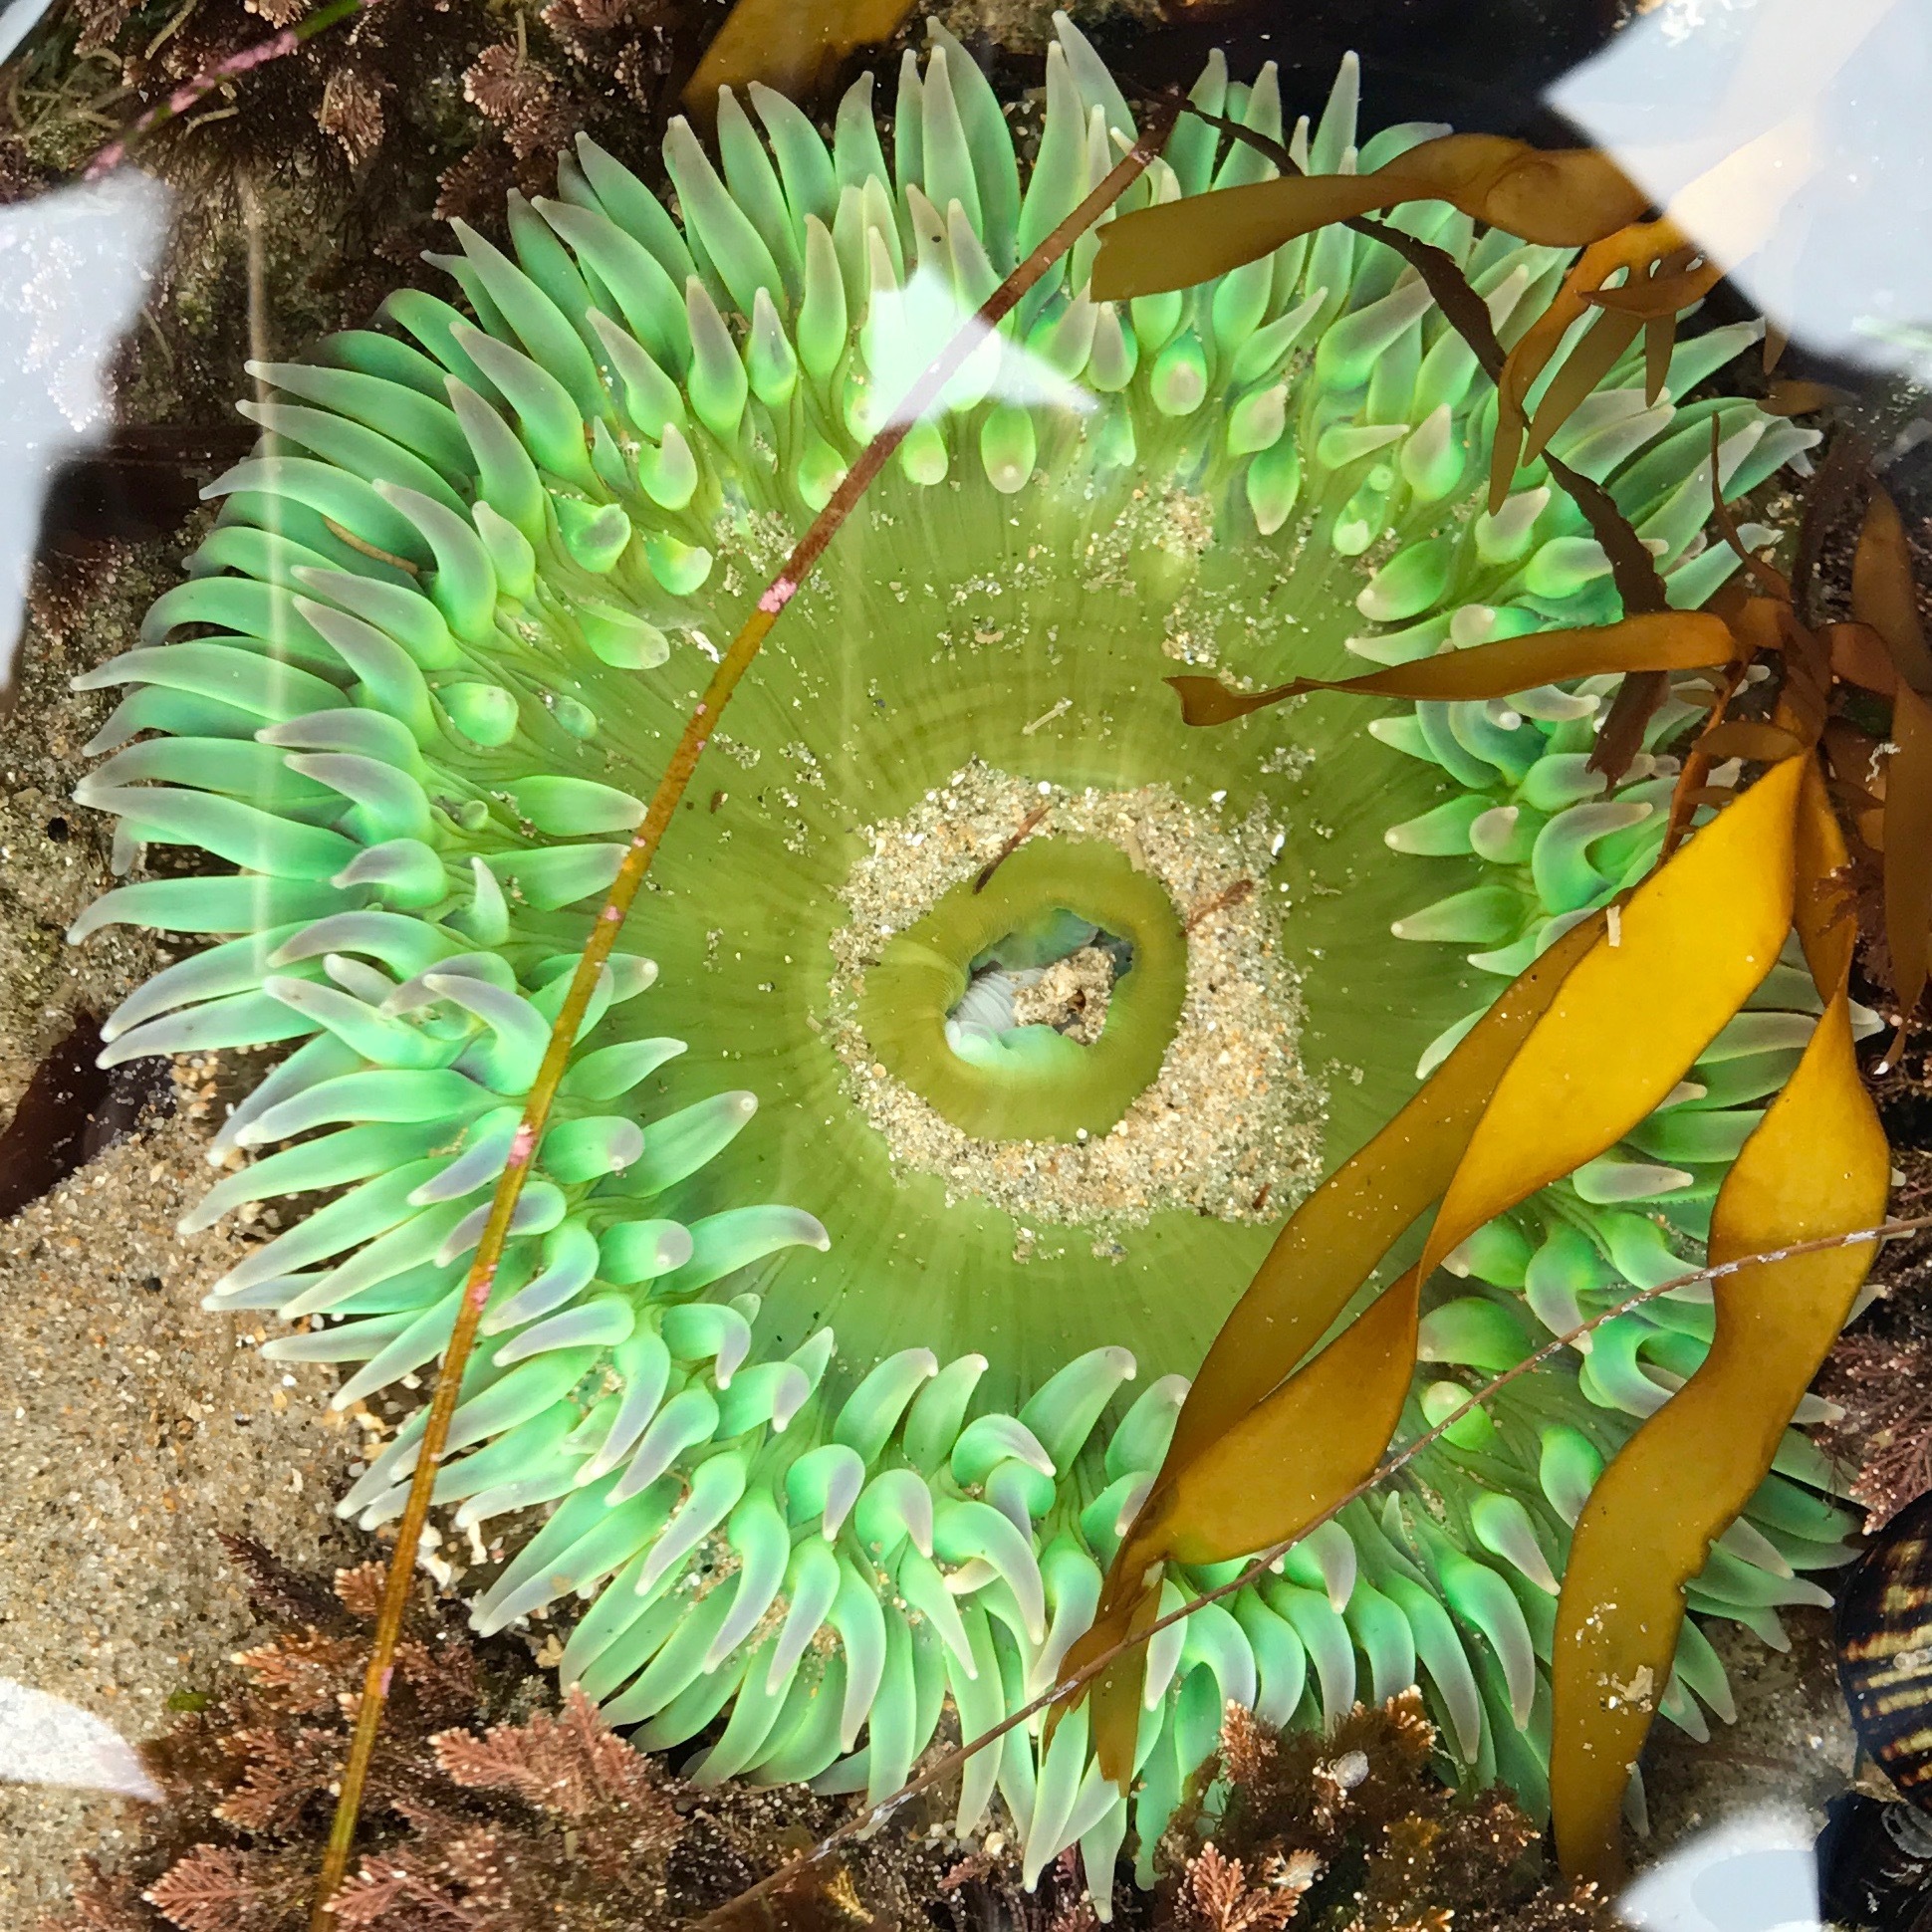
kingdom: Animalia
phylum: Cnidaria
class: Anthozoa
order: Actiniaria
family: Actiniidae
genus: Anthopleura
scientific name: Anthopleura xanthogrammica
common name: Giant green anemone
